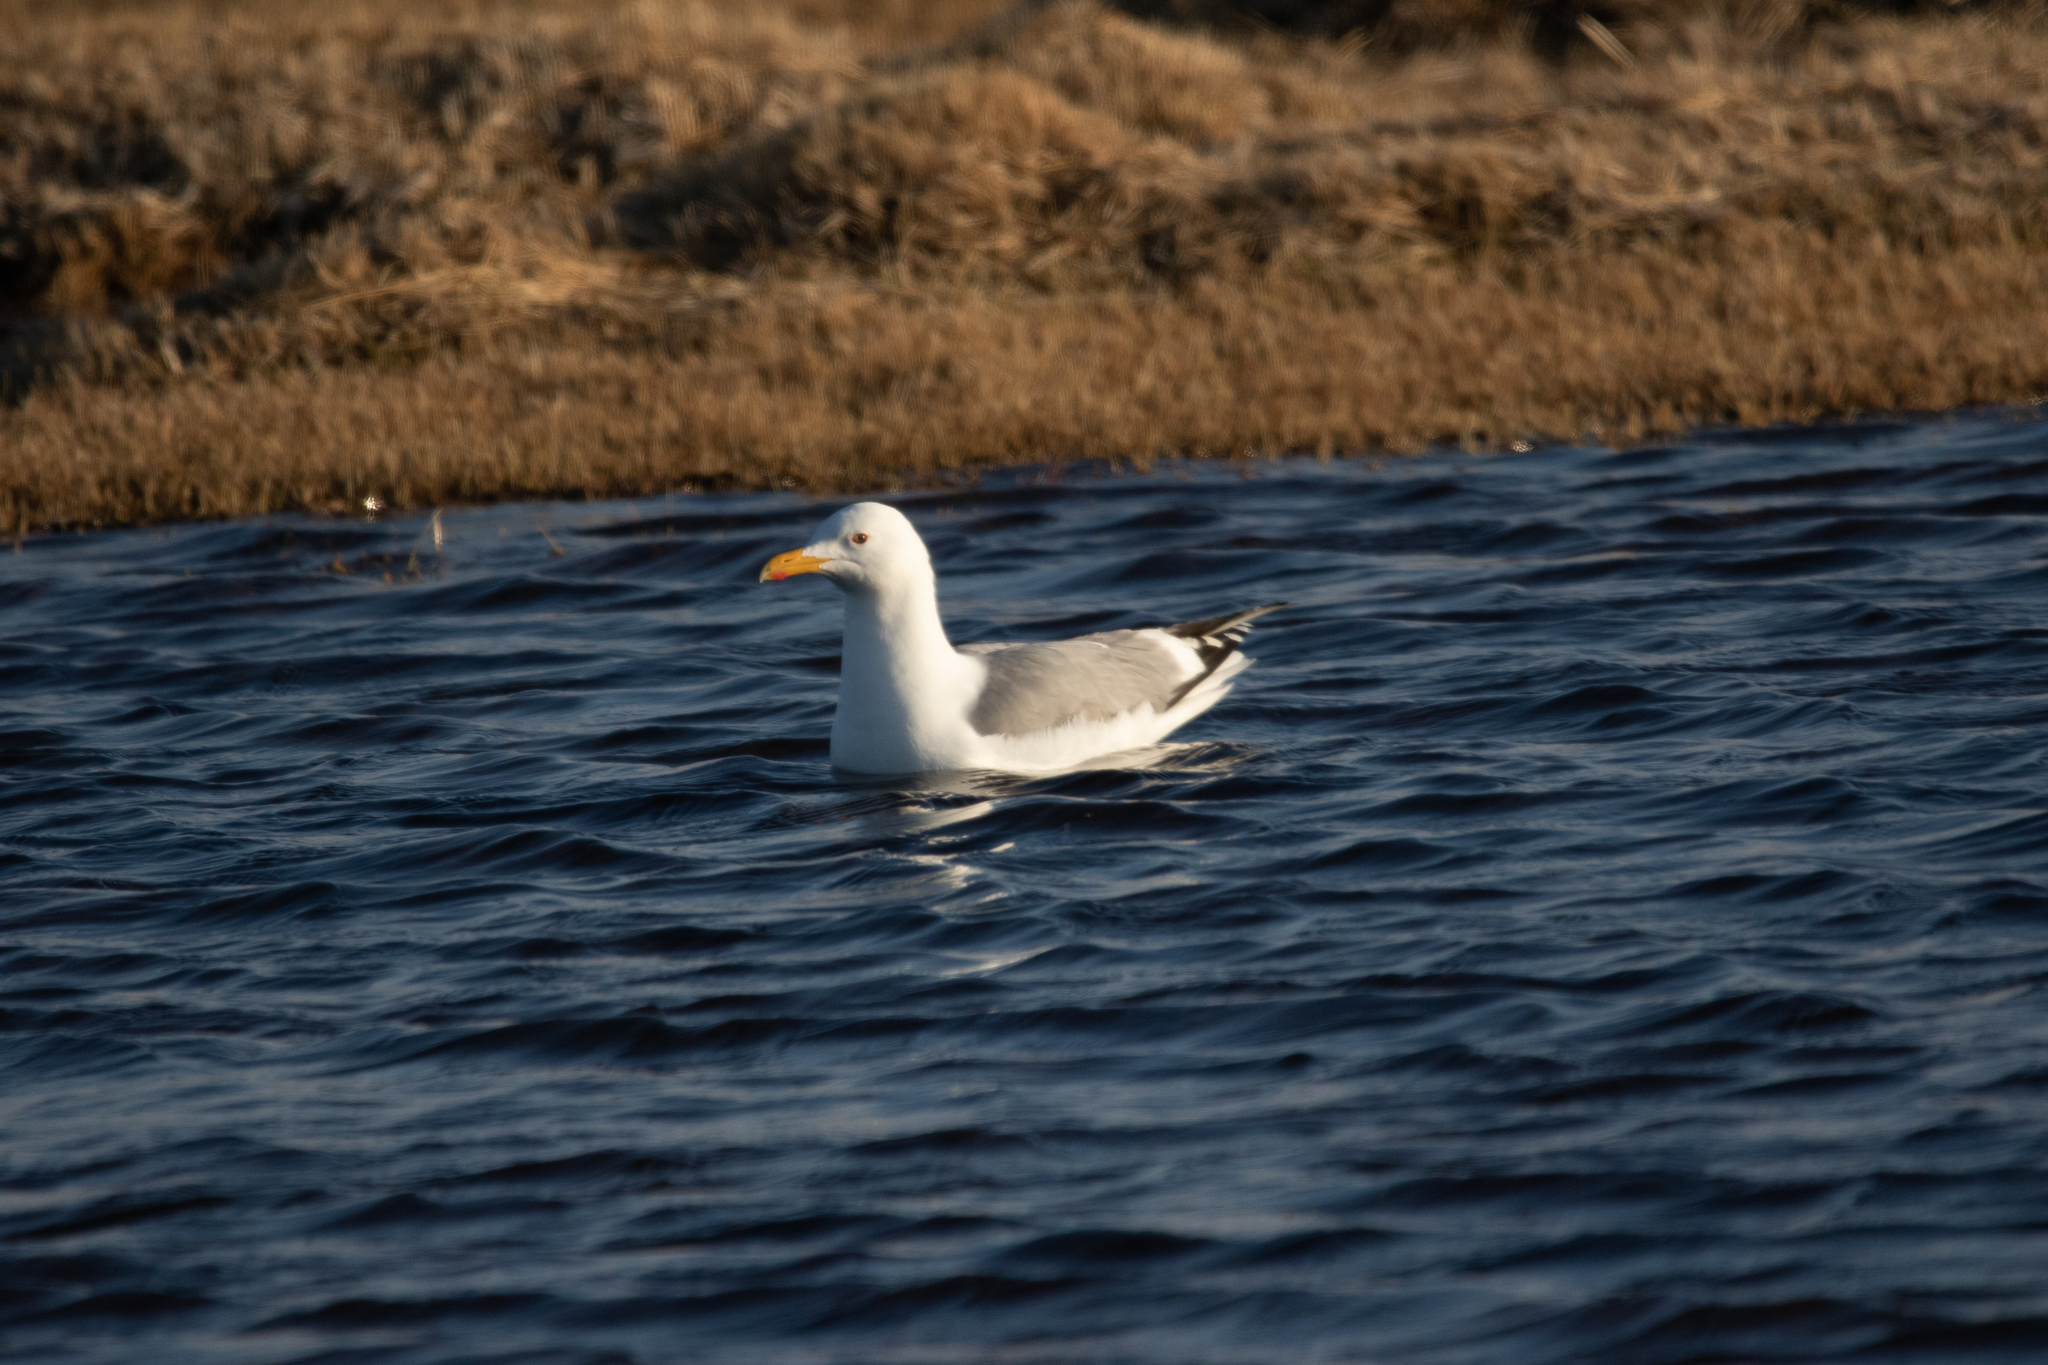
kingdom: Animalia
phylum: Chordata
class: Aves
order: Charadriiformes
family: Laridae
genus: Larus
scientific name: Larus argentatus
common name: Herring gull
